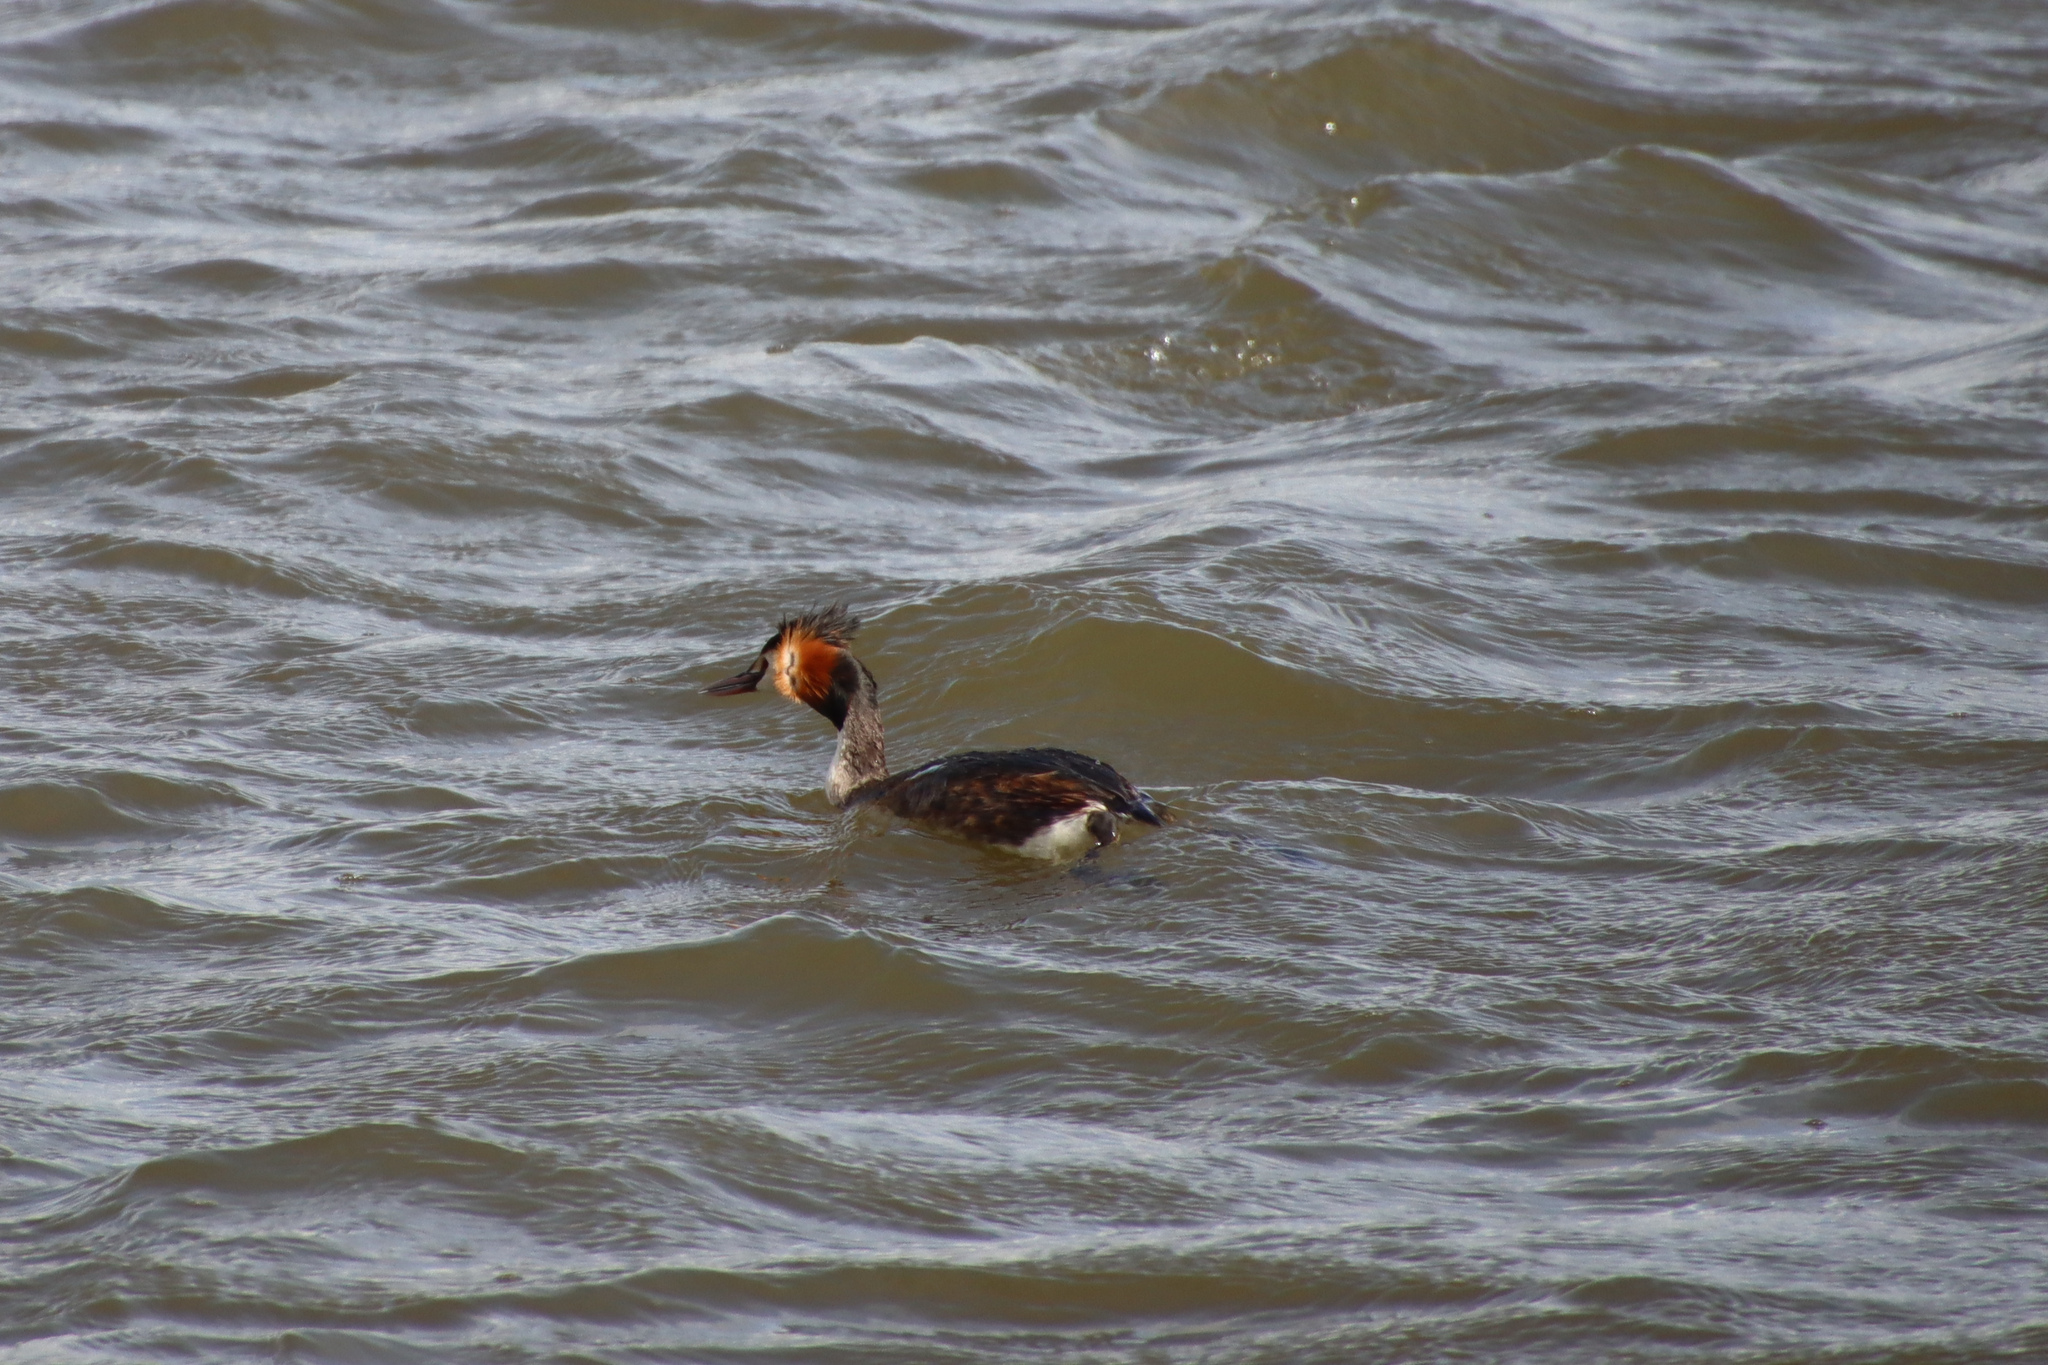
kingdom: Animalia
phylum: Chordata
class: Aves
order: Podicipediformes
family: Podicipedidae
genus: Podiceps
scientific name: Podiceps cristatus
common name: Great crested grebe
